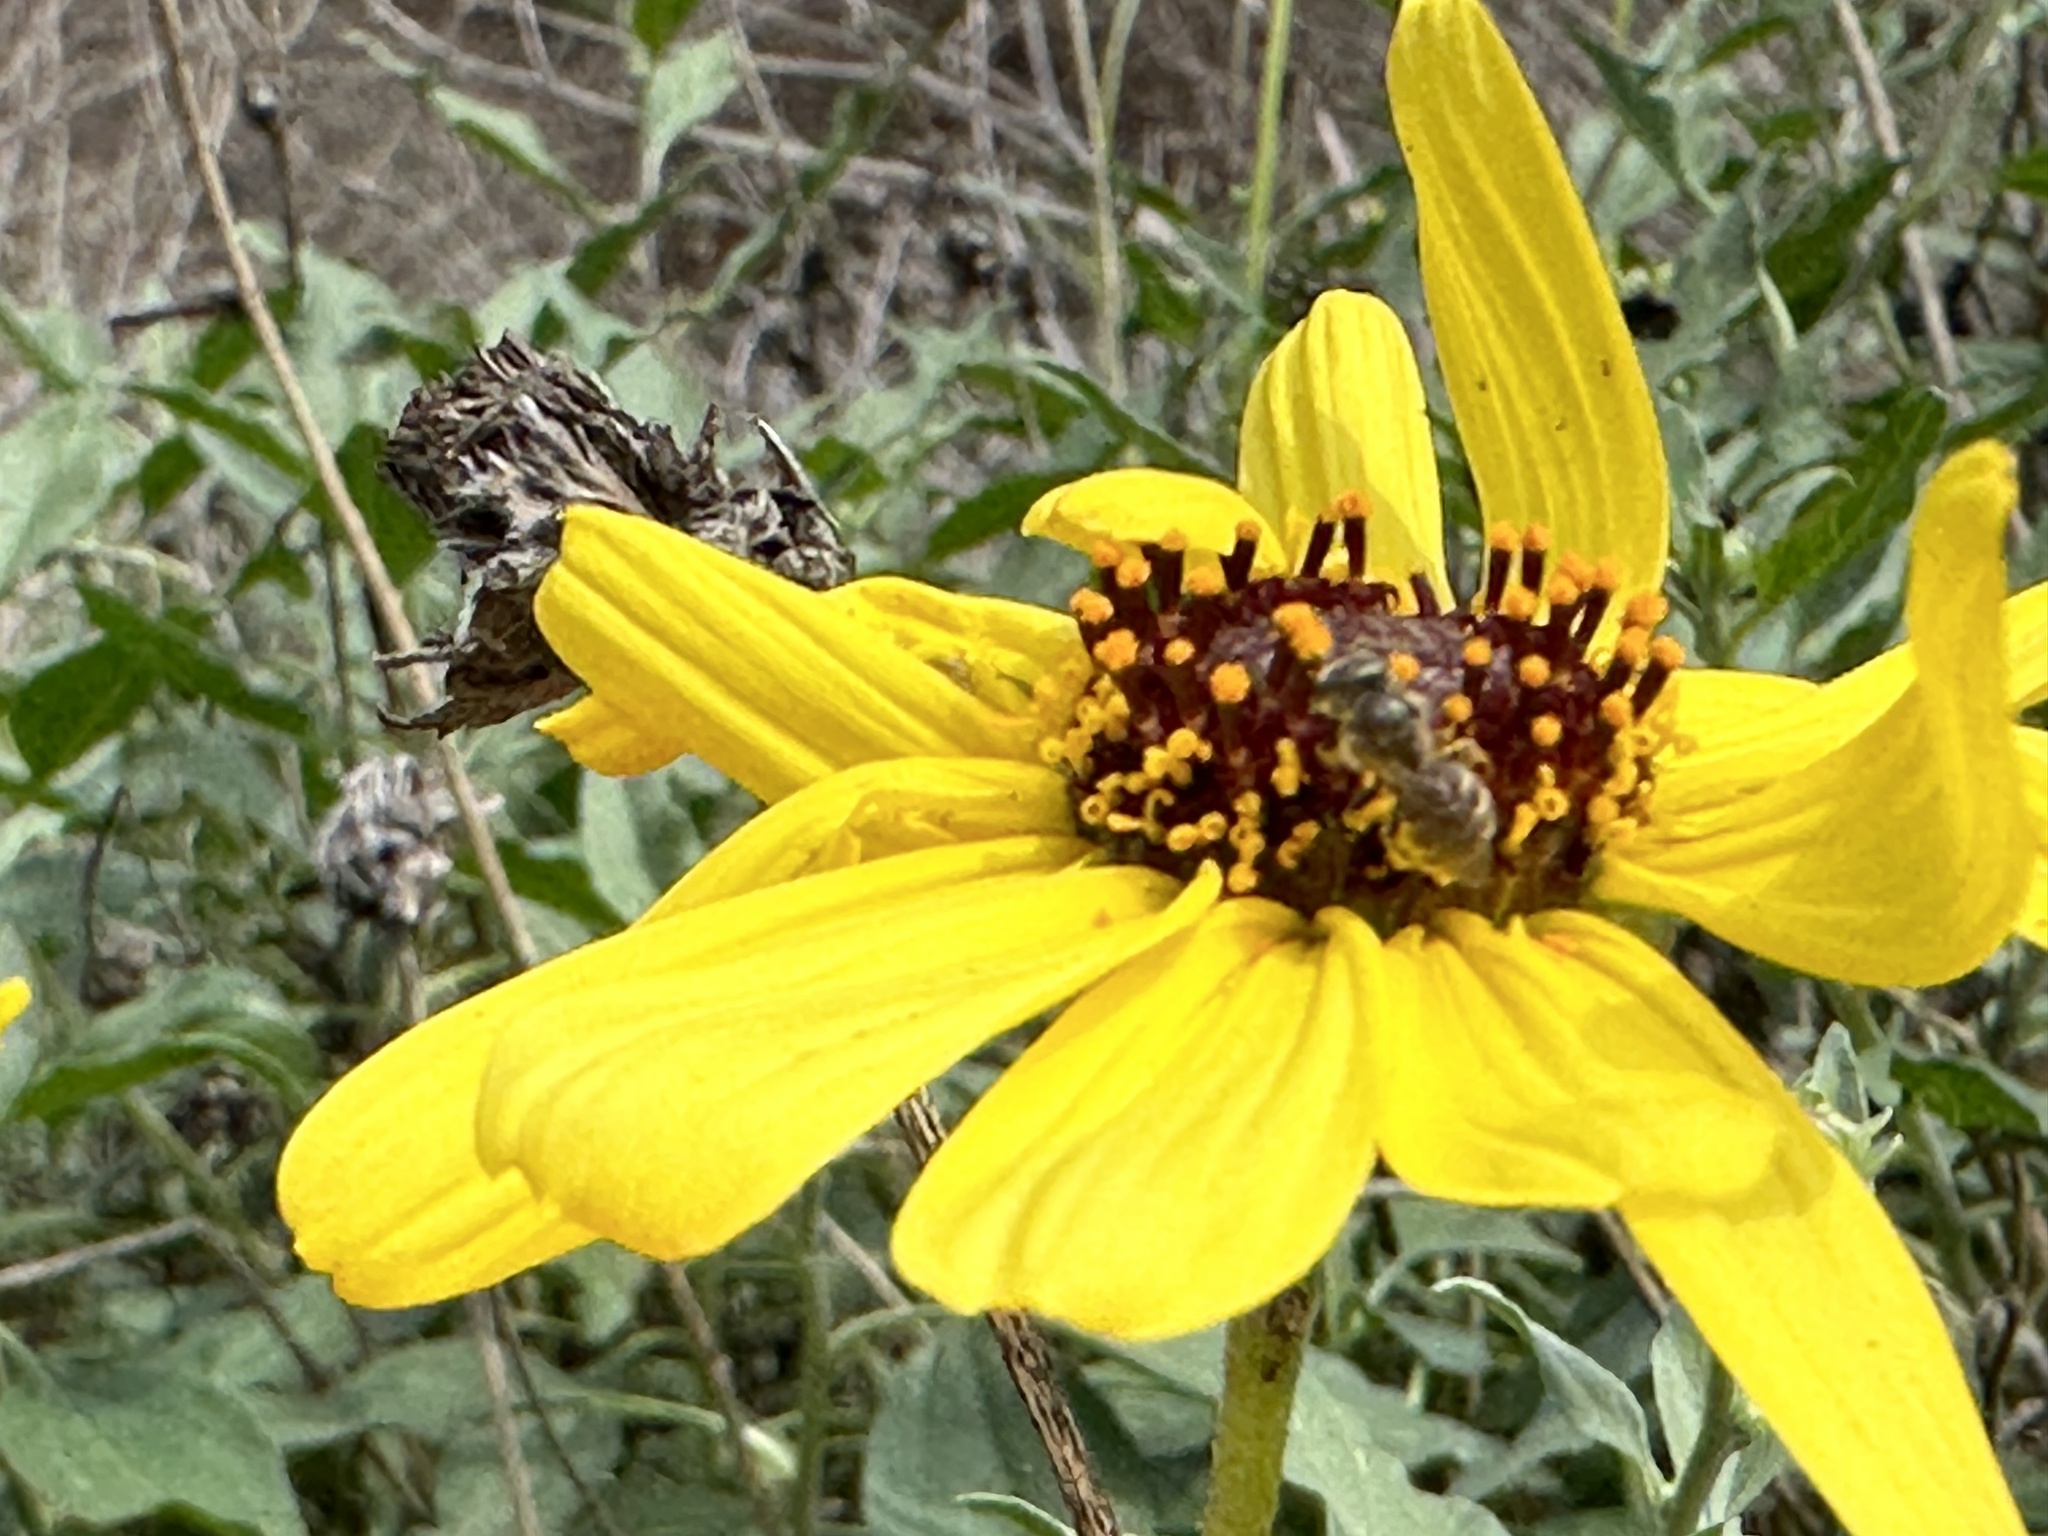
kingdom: Plantae
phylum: Tracheophyta
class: Magnoliopsida
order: Asterales
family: Asteraceae
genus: Encelia
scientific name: Encelia californica
